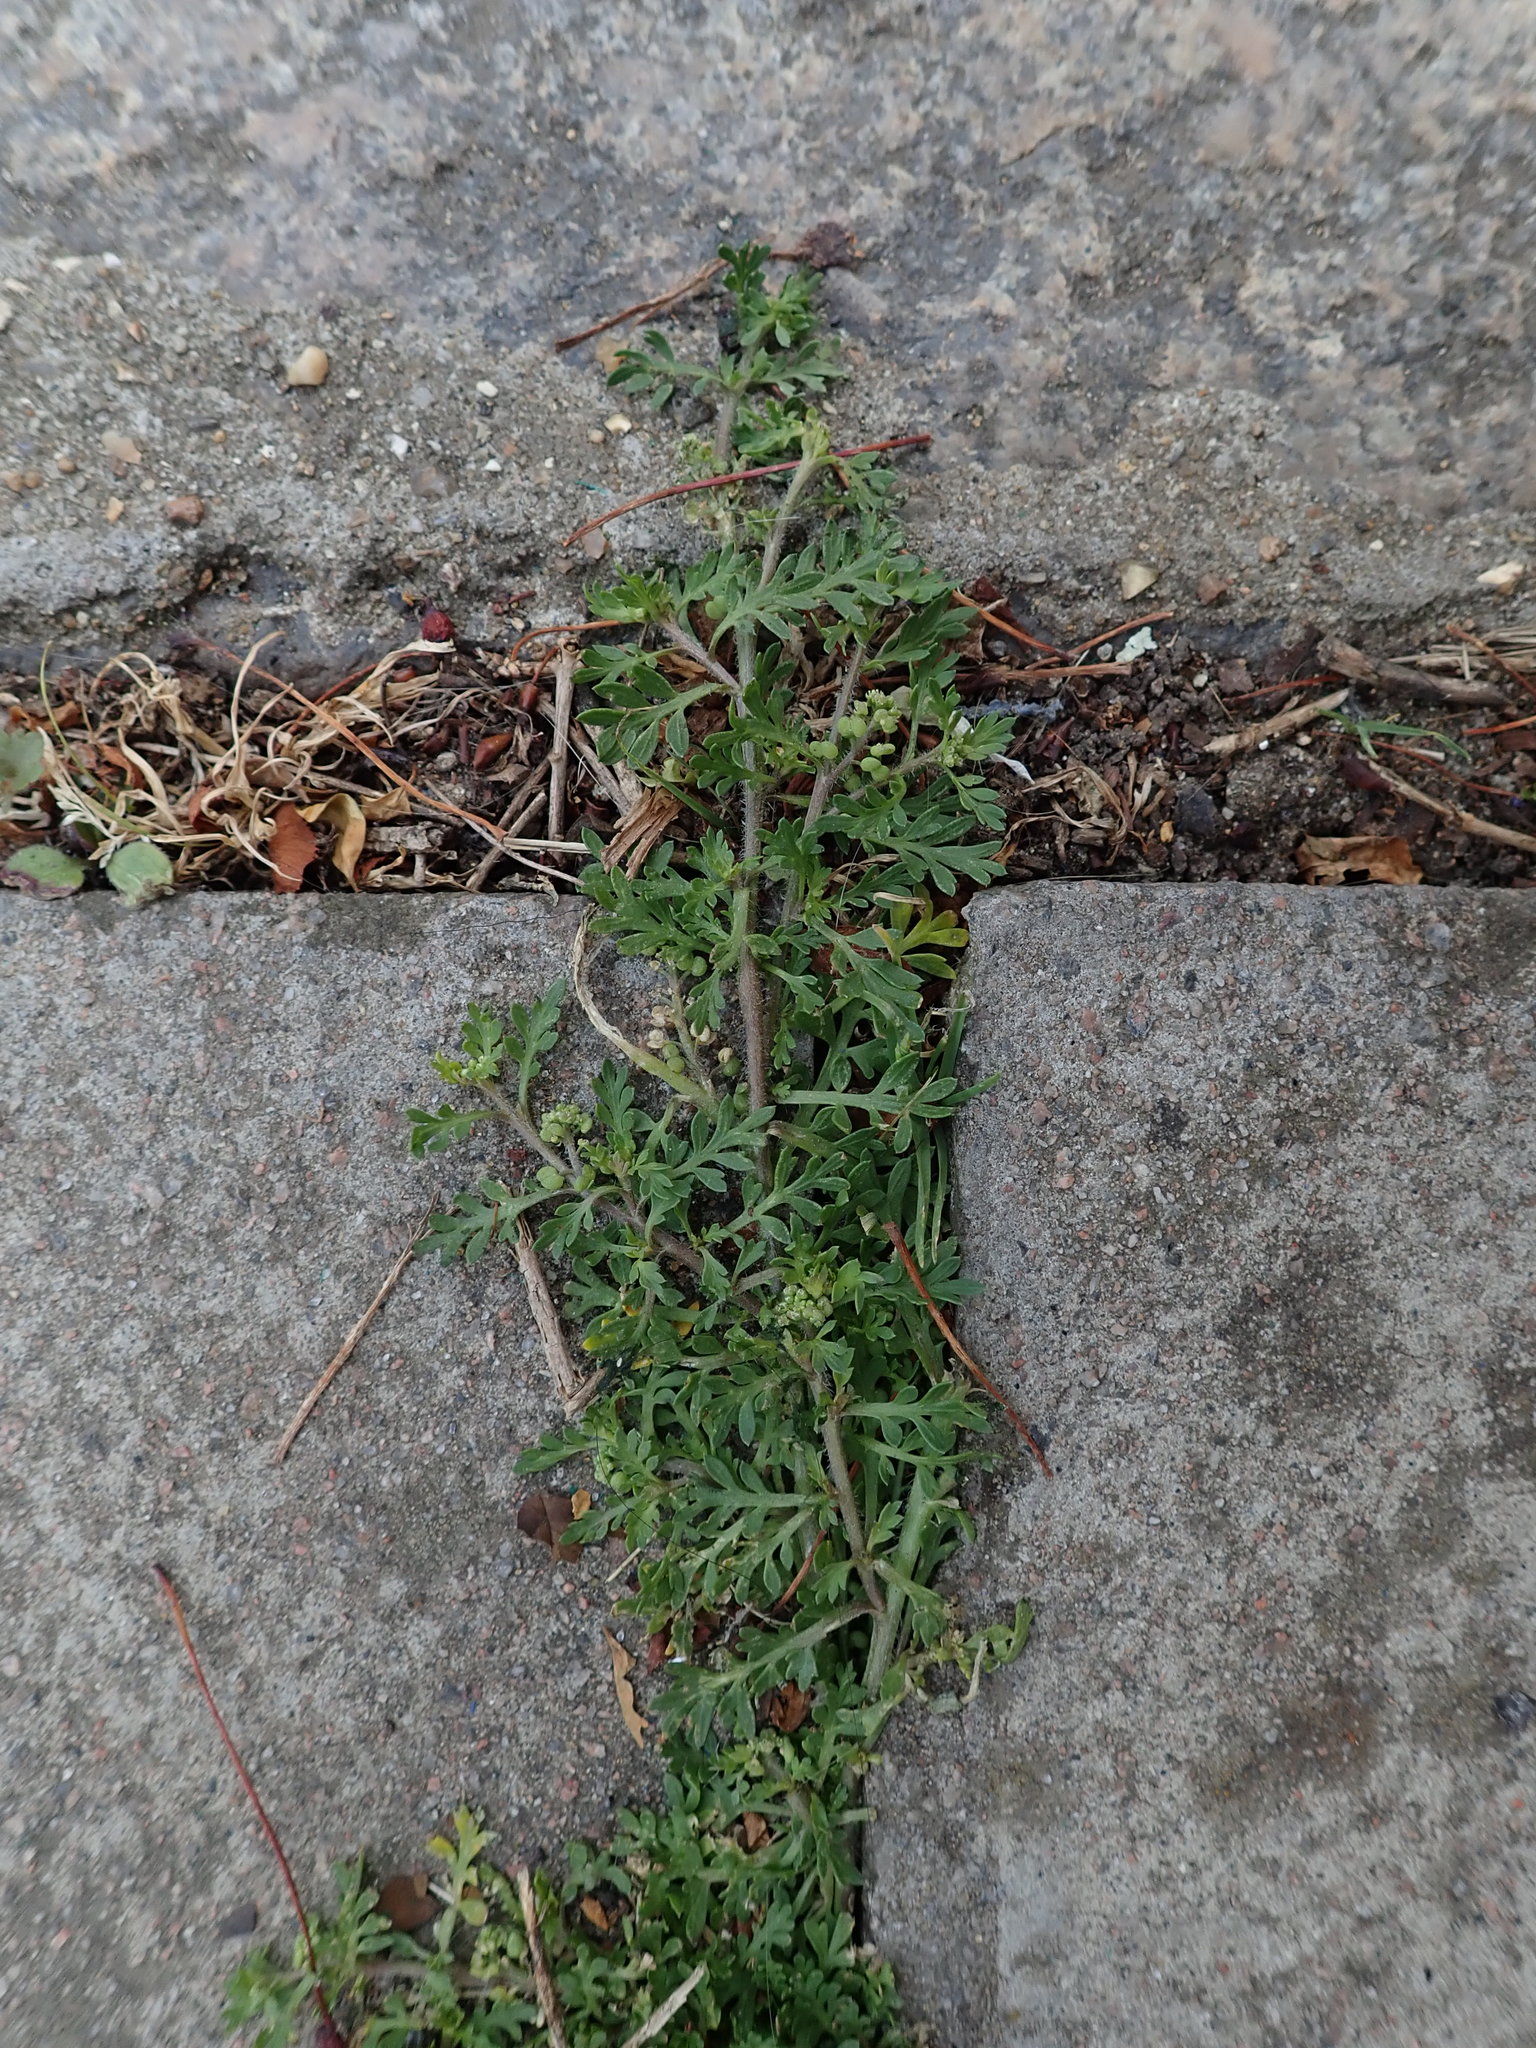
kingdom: Plantae
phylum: Tracheophyta
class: Magnoliopsida
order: Brassicales
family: Brassicaceae
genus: Lepidium
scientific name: Lepidium didymum
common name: Lesser swinecress
